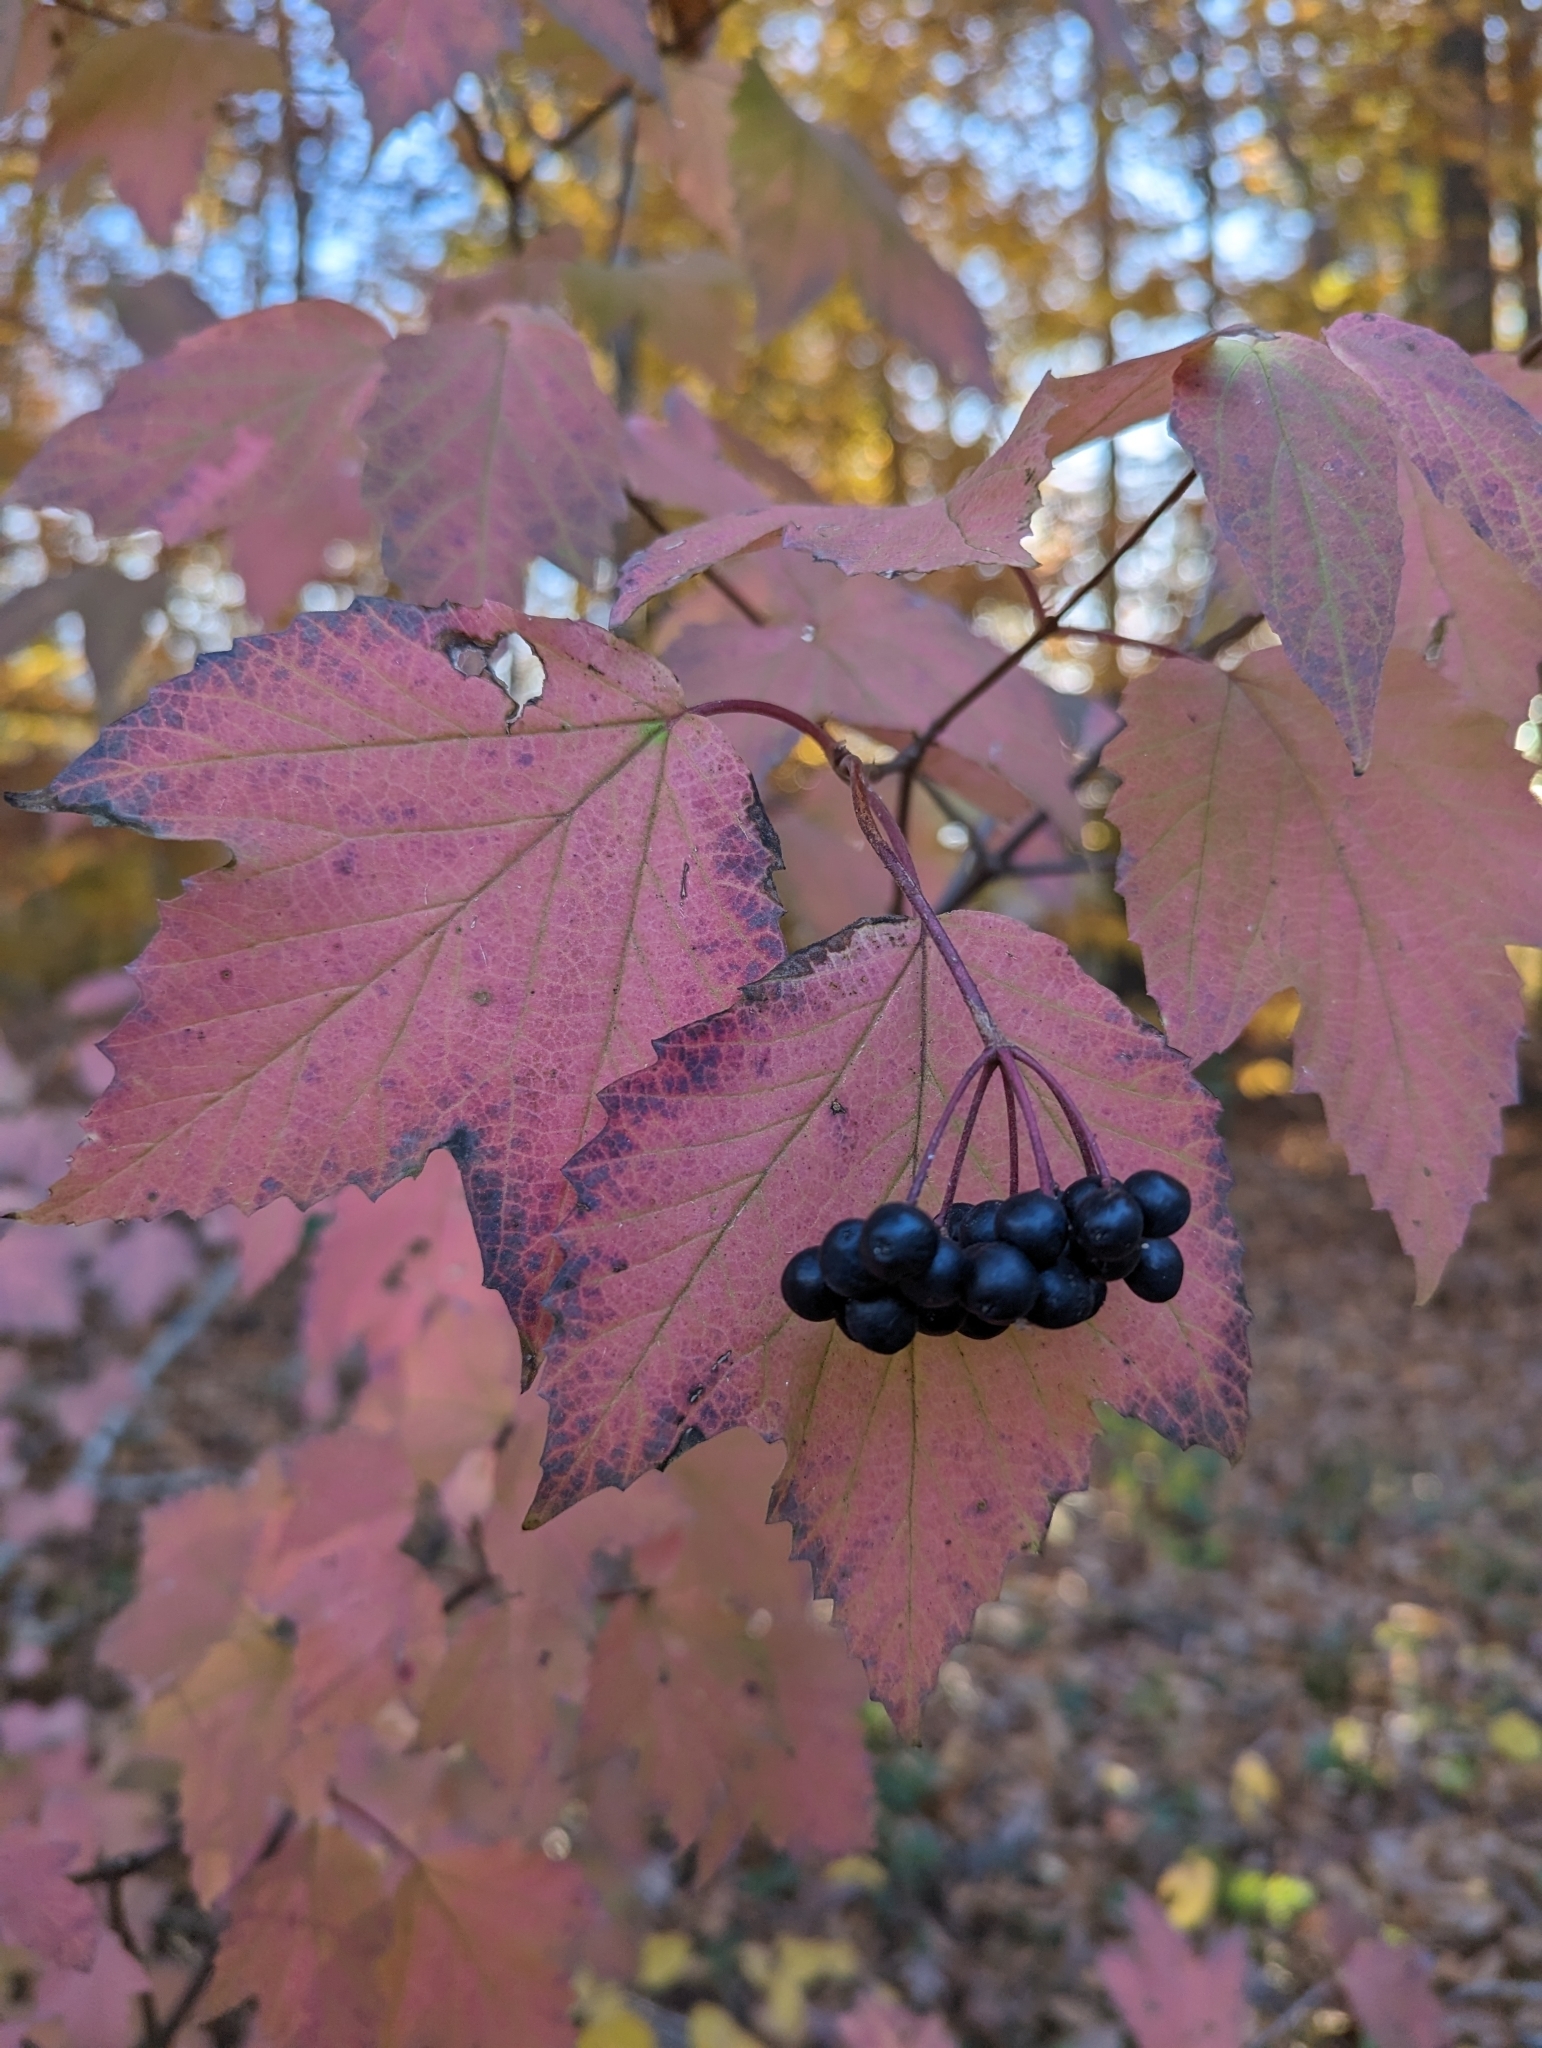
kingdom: Plantae
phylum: Tracheophyta
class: Magnoliopsida
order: Dipsacales
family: Viburnaceae
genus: Viburnum
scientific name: Viburnum acerifolium
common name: Dockmackie
